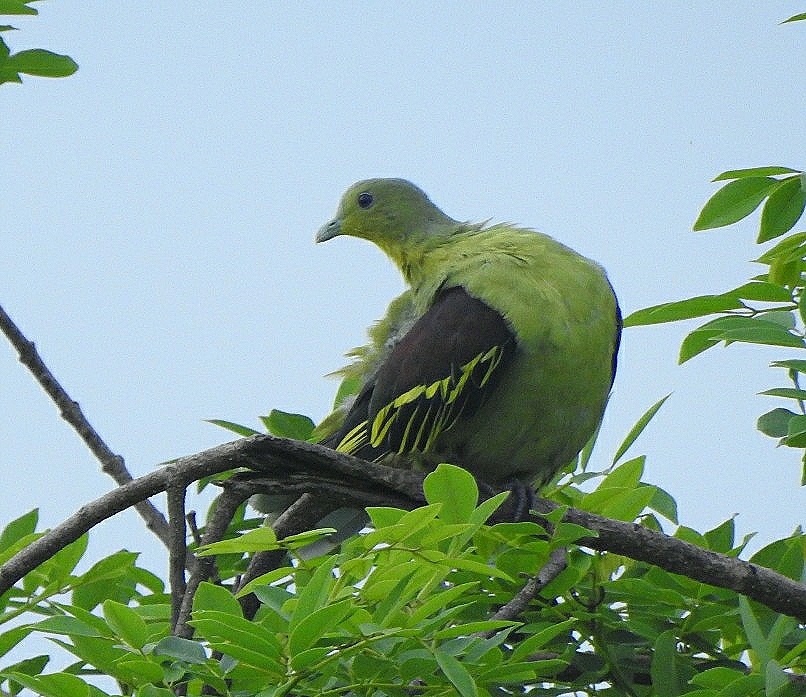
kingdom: Animalia
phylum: Chordata
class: Aves
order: Columbiformes
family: Columbidae
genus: Treron
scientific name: Treron affinis
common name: Grey-fronted green pigeon
